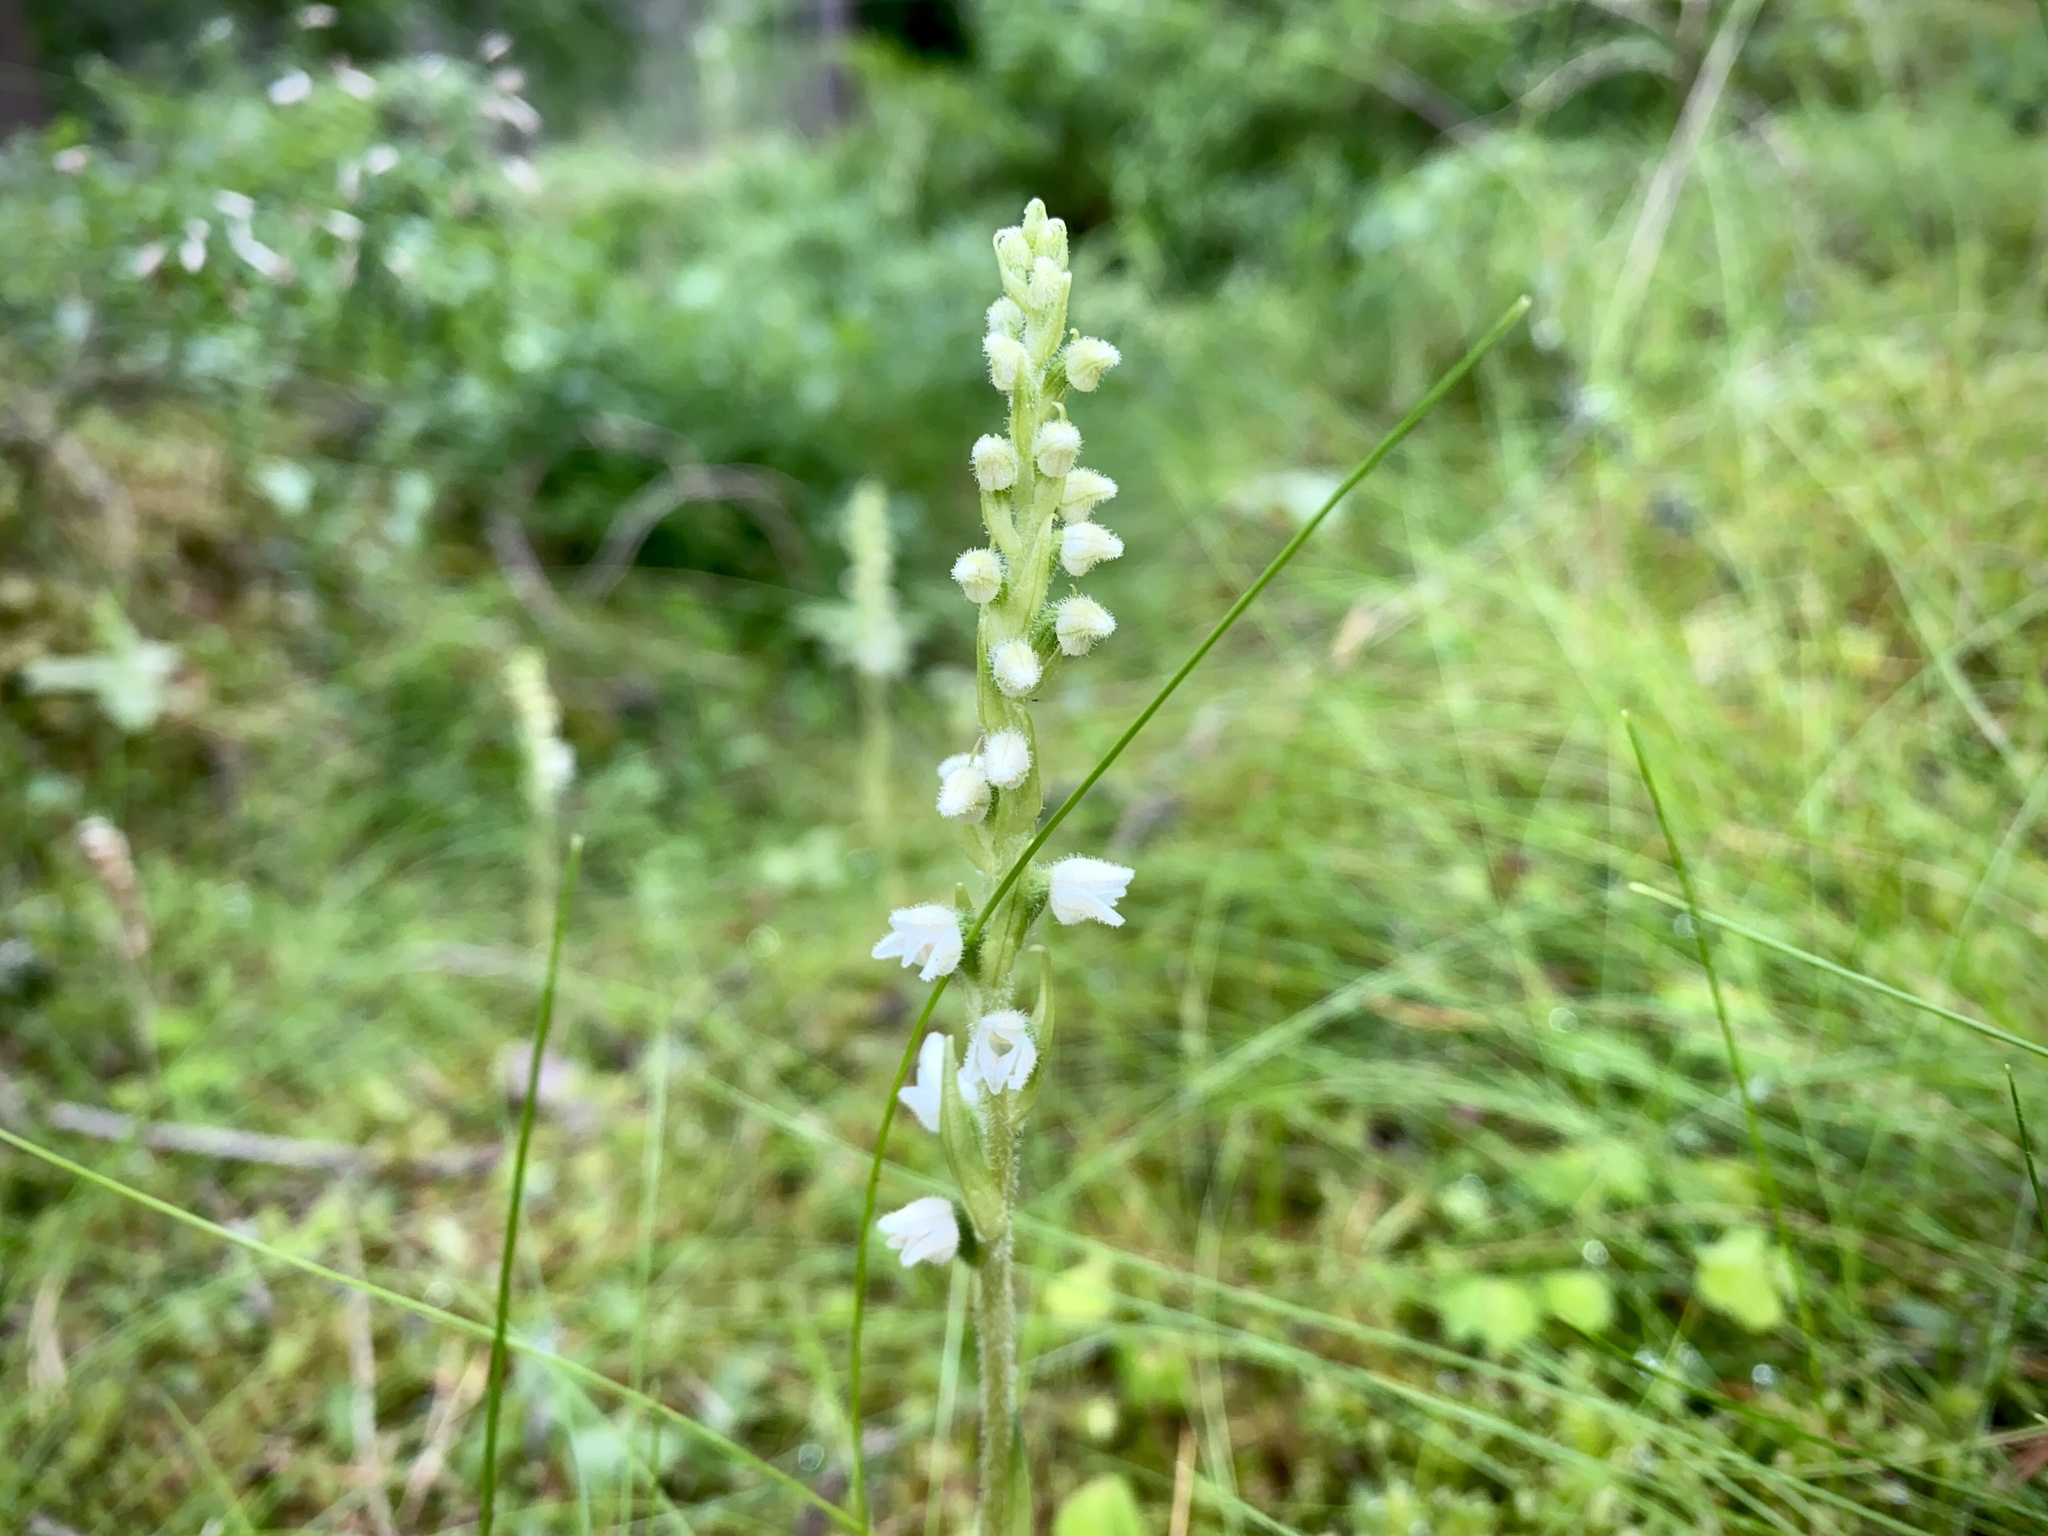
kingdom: Plantae
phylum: Tracheophyta
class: Liliopsida
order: Asparagales
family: Orchidaceae
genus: Goodyera
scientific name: Goodyera repens
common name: Creeping lady's-tresses
